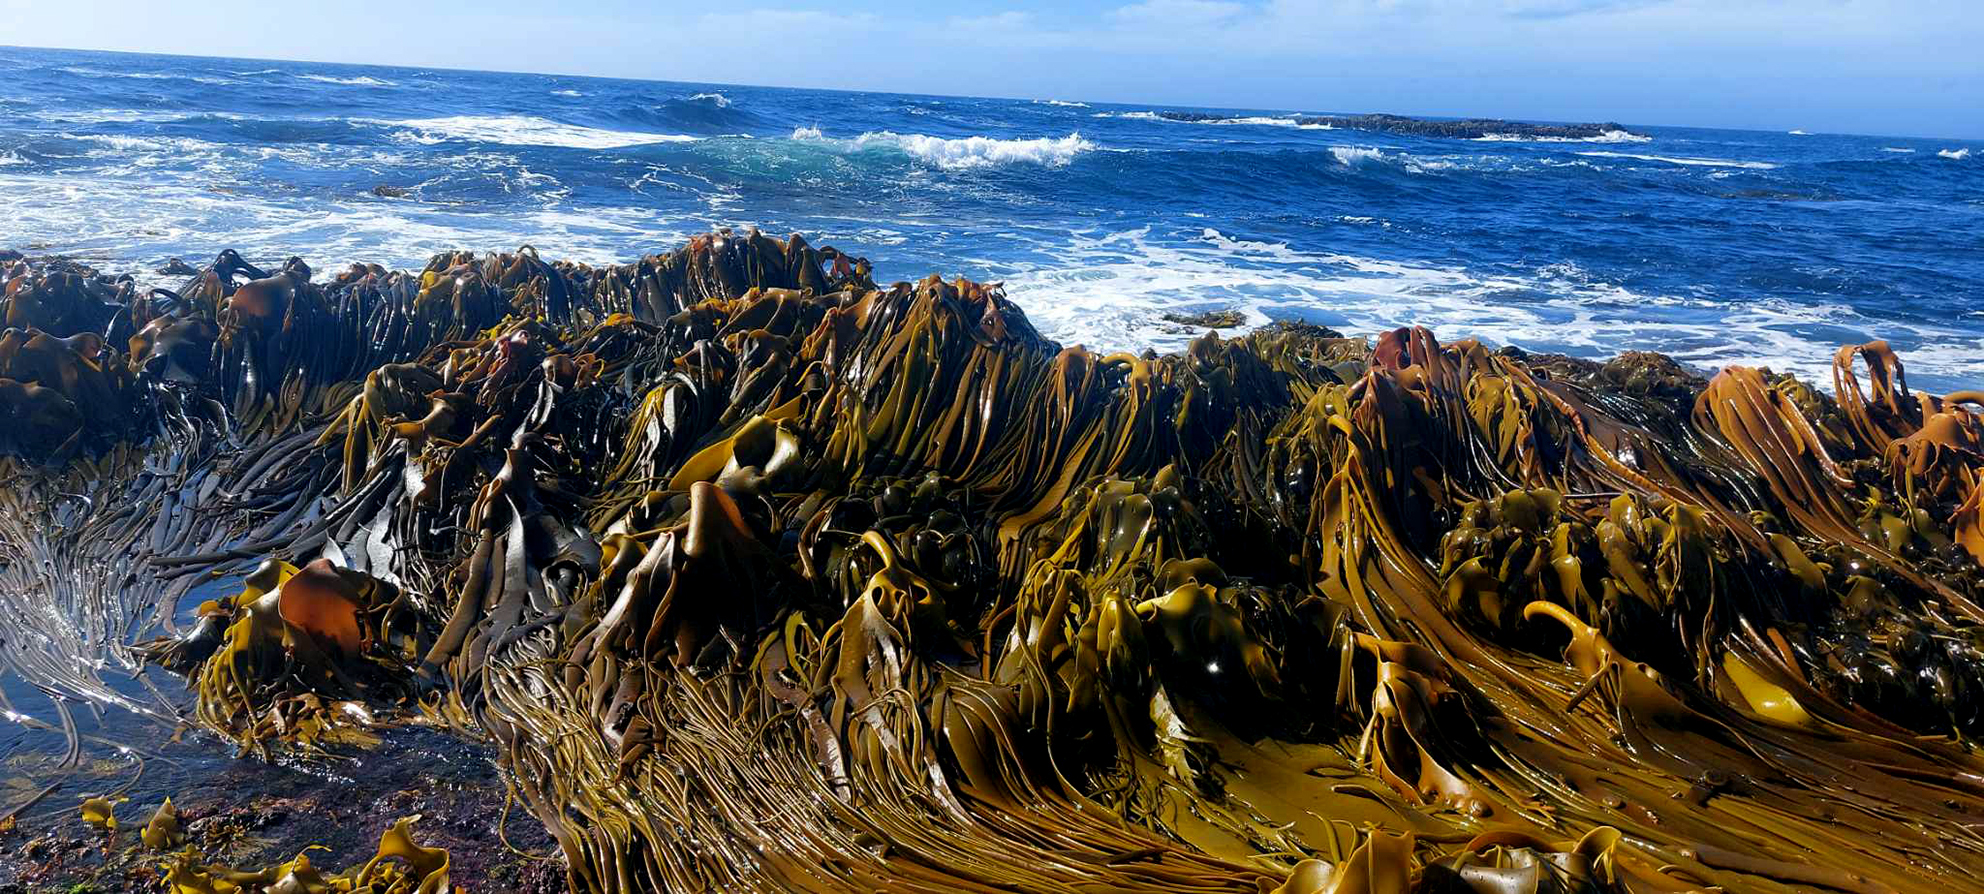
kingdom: Chromista
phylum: Ochrophyta
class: Phaeophyceae
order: Fucales
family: Durvillaeaceae
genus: Durvillaea
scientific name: Durvillaea antarctica
